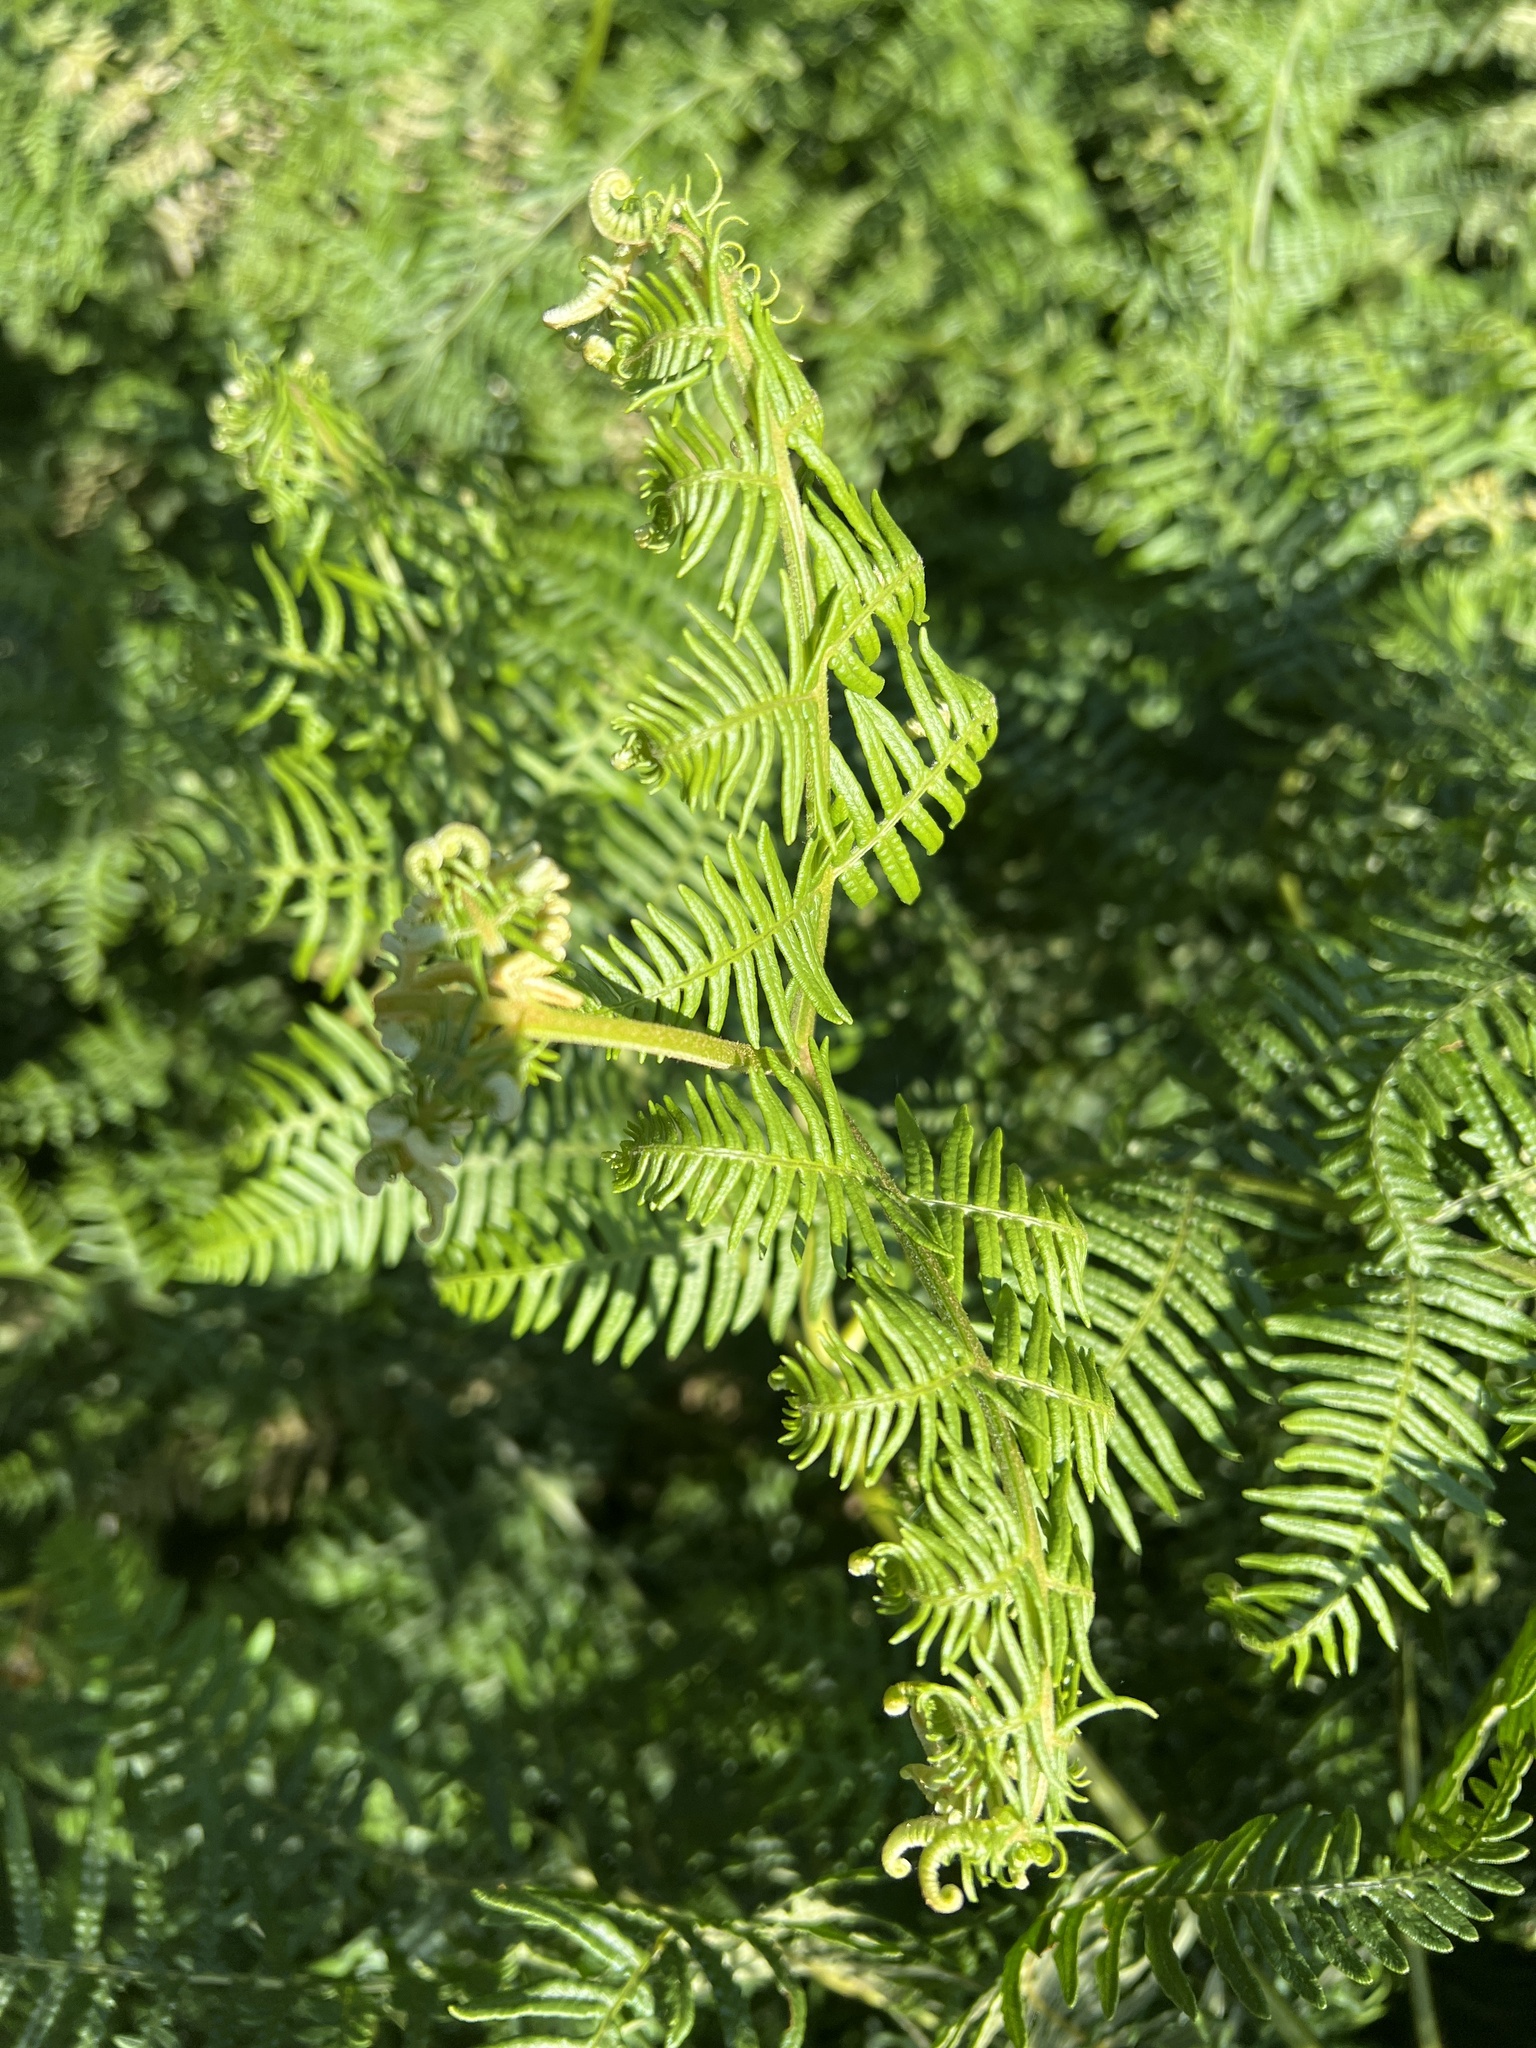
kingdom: Plantae
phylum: Tracheophyta
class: Polypodiopsida
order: Polypodiales
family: Dennstaedtiaceae
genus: Pteridium
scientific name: Pteridium aquilinum
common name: Bracken
